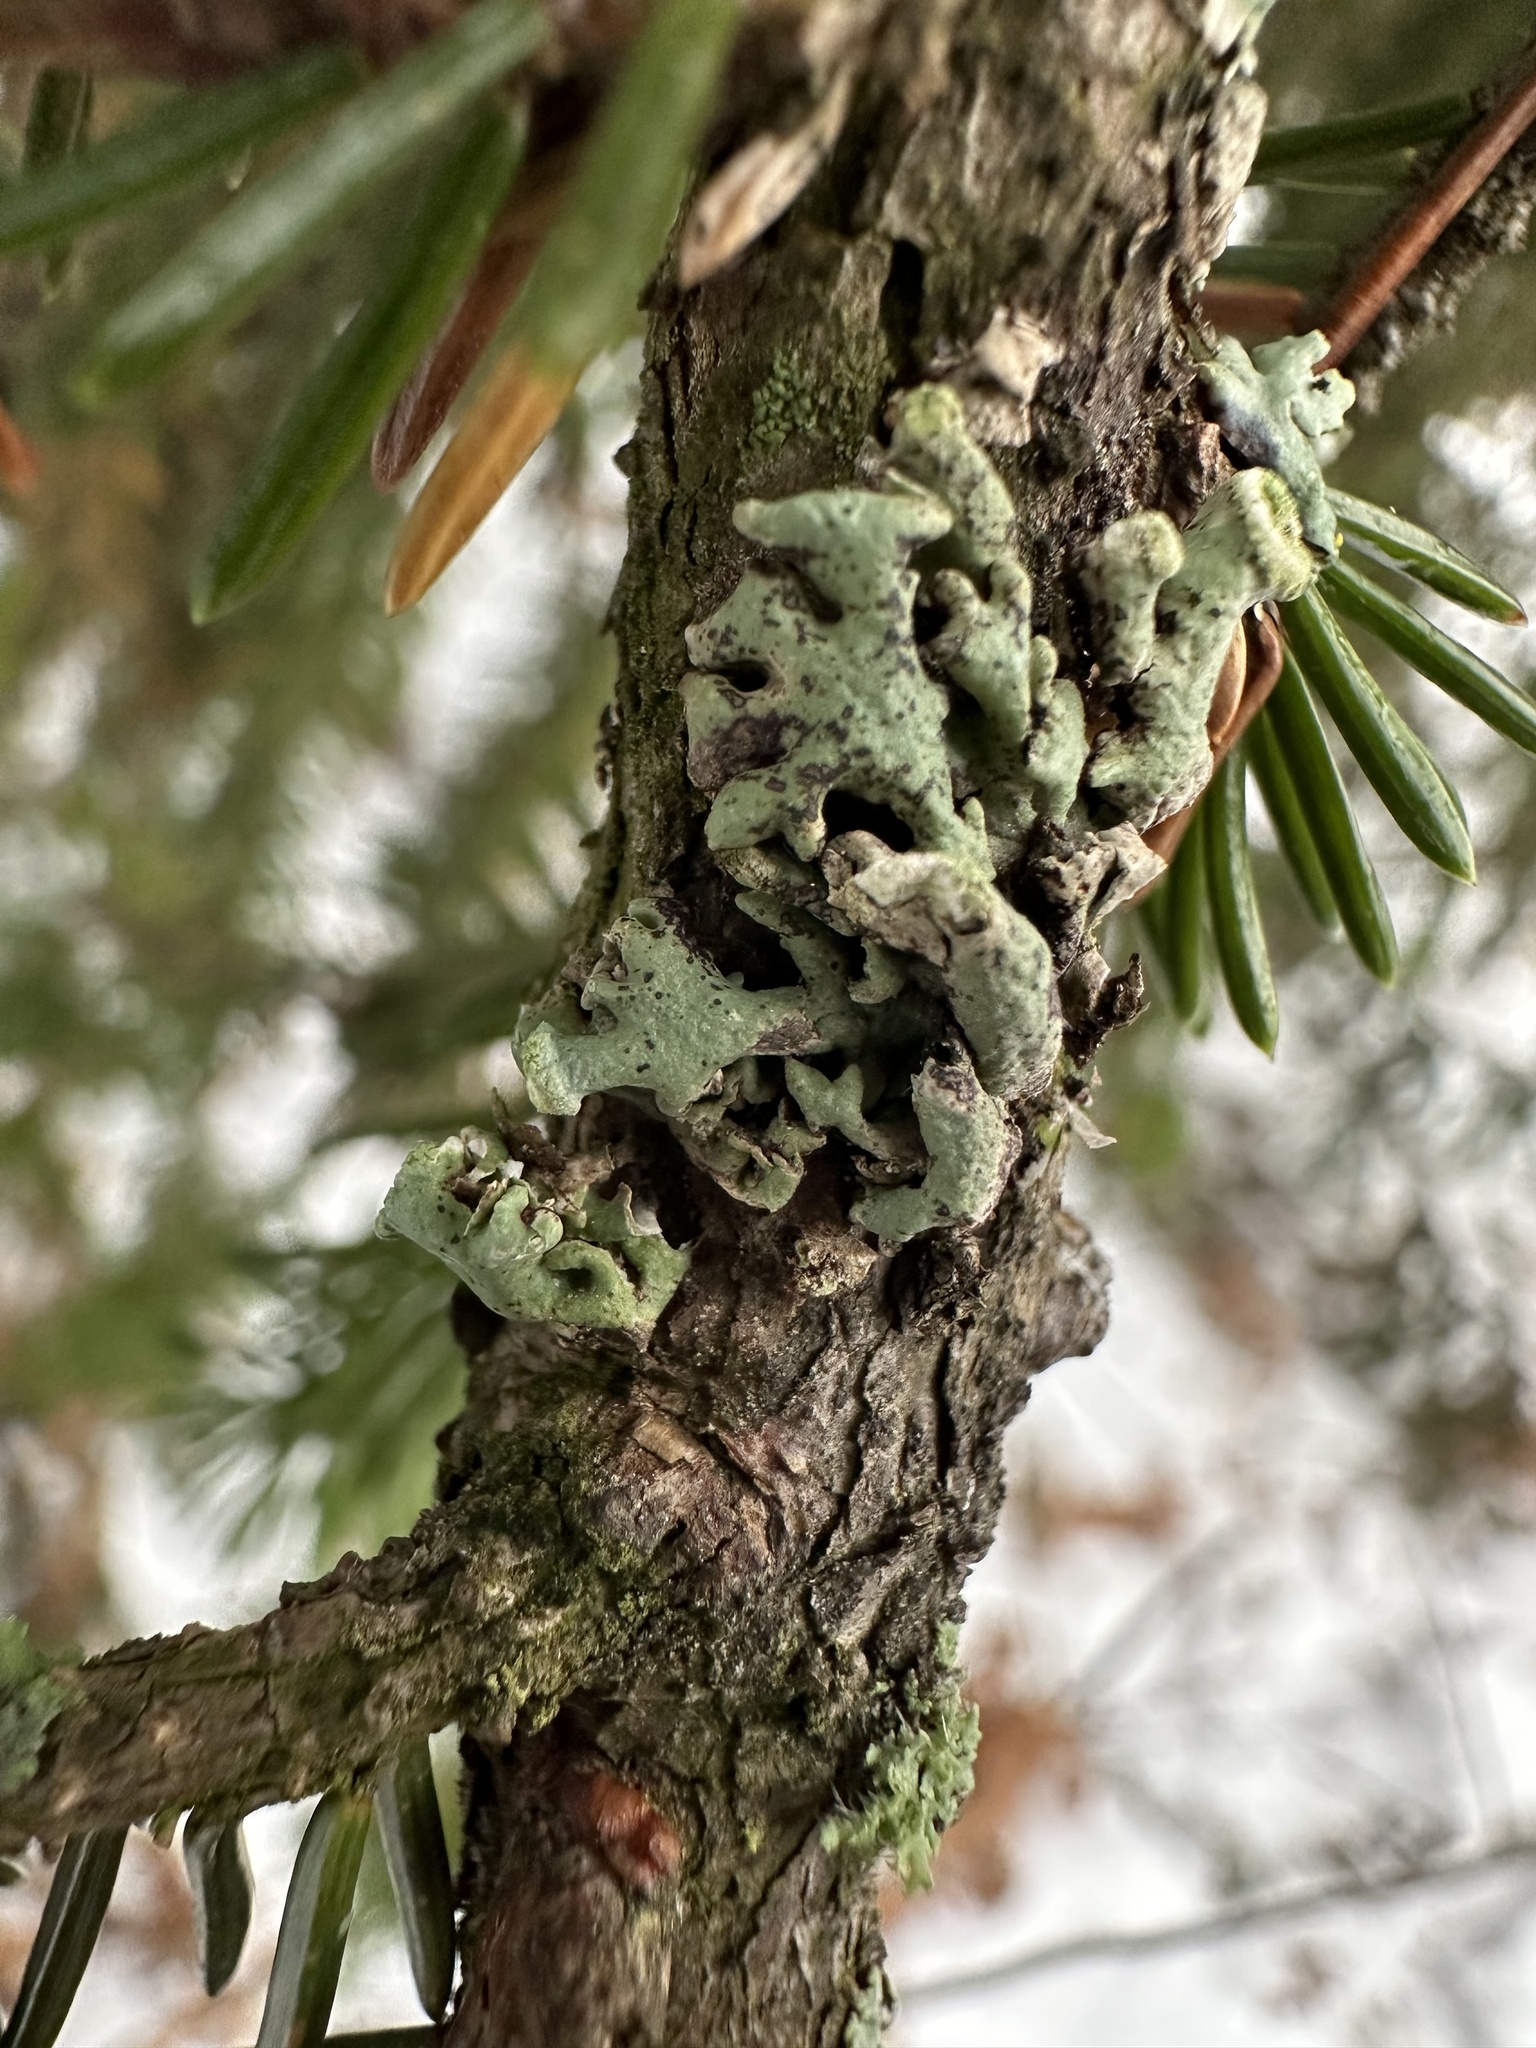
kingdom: Fungi
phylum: Ascomycota
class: Lecanoromycetes
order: Lecanorales
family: Parmeliaceae
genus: Hypogymnia
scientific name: Hypogymnia tubulosa
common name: Powder-headed tube lichen
